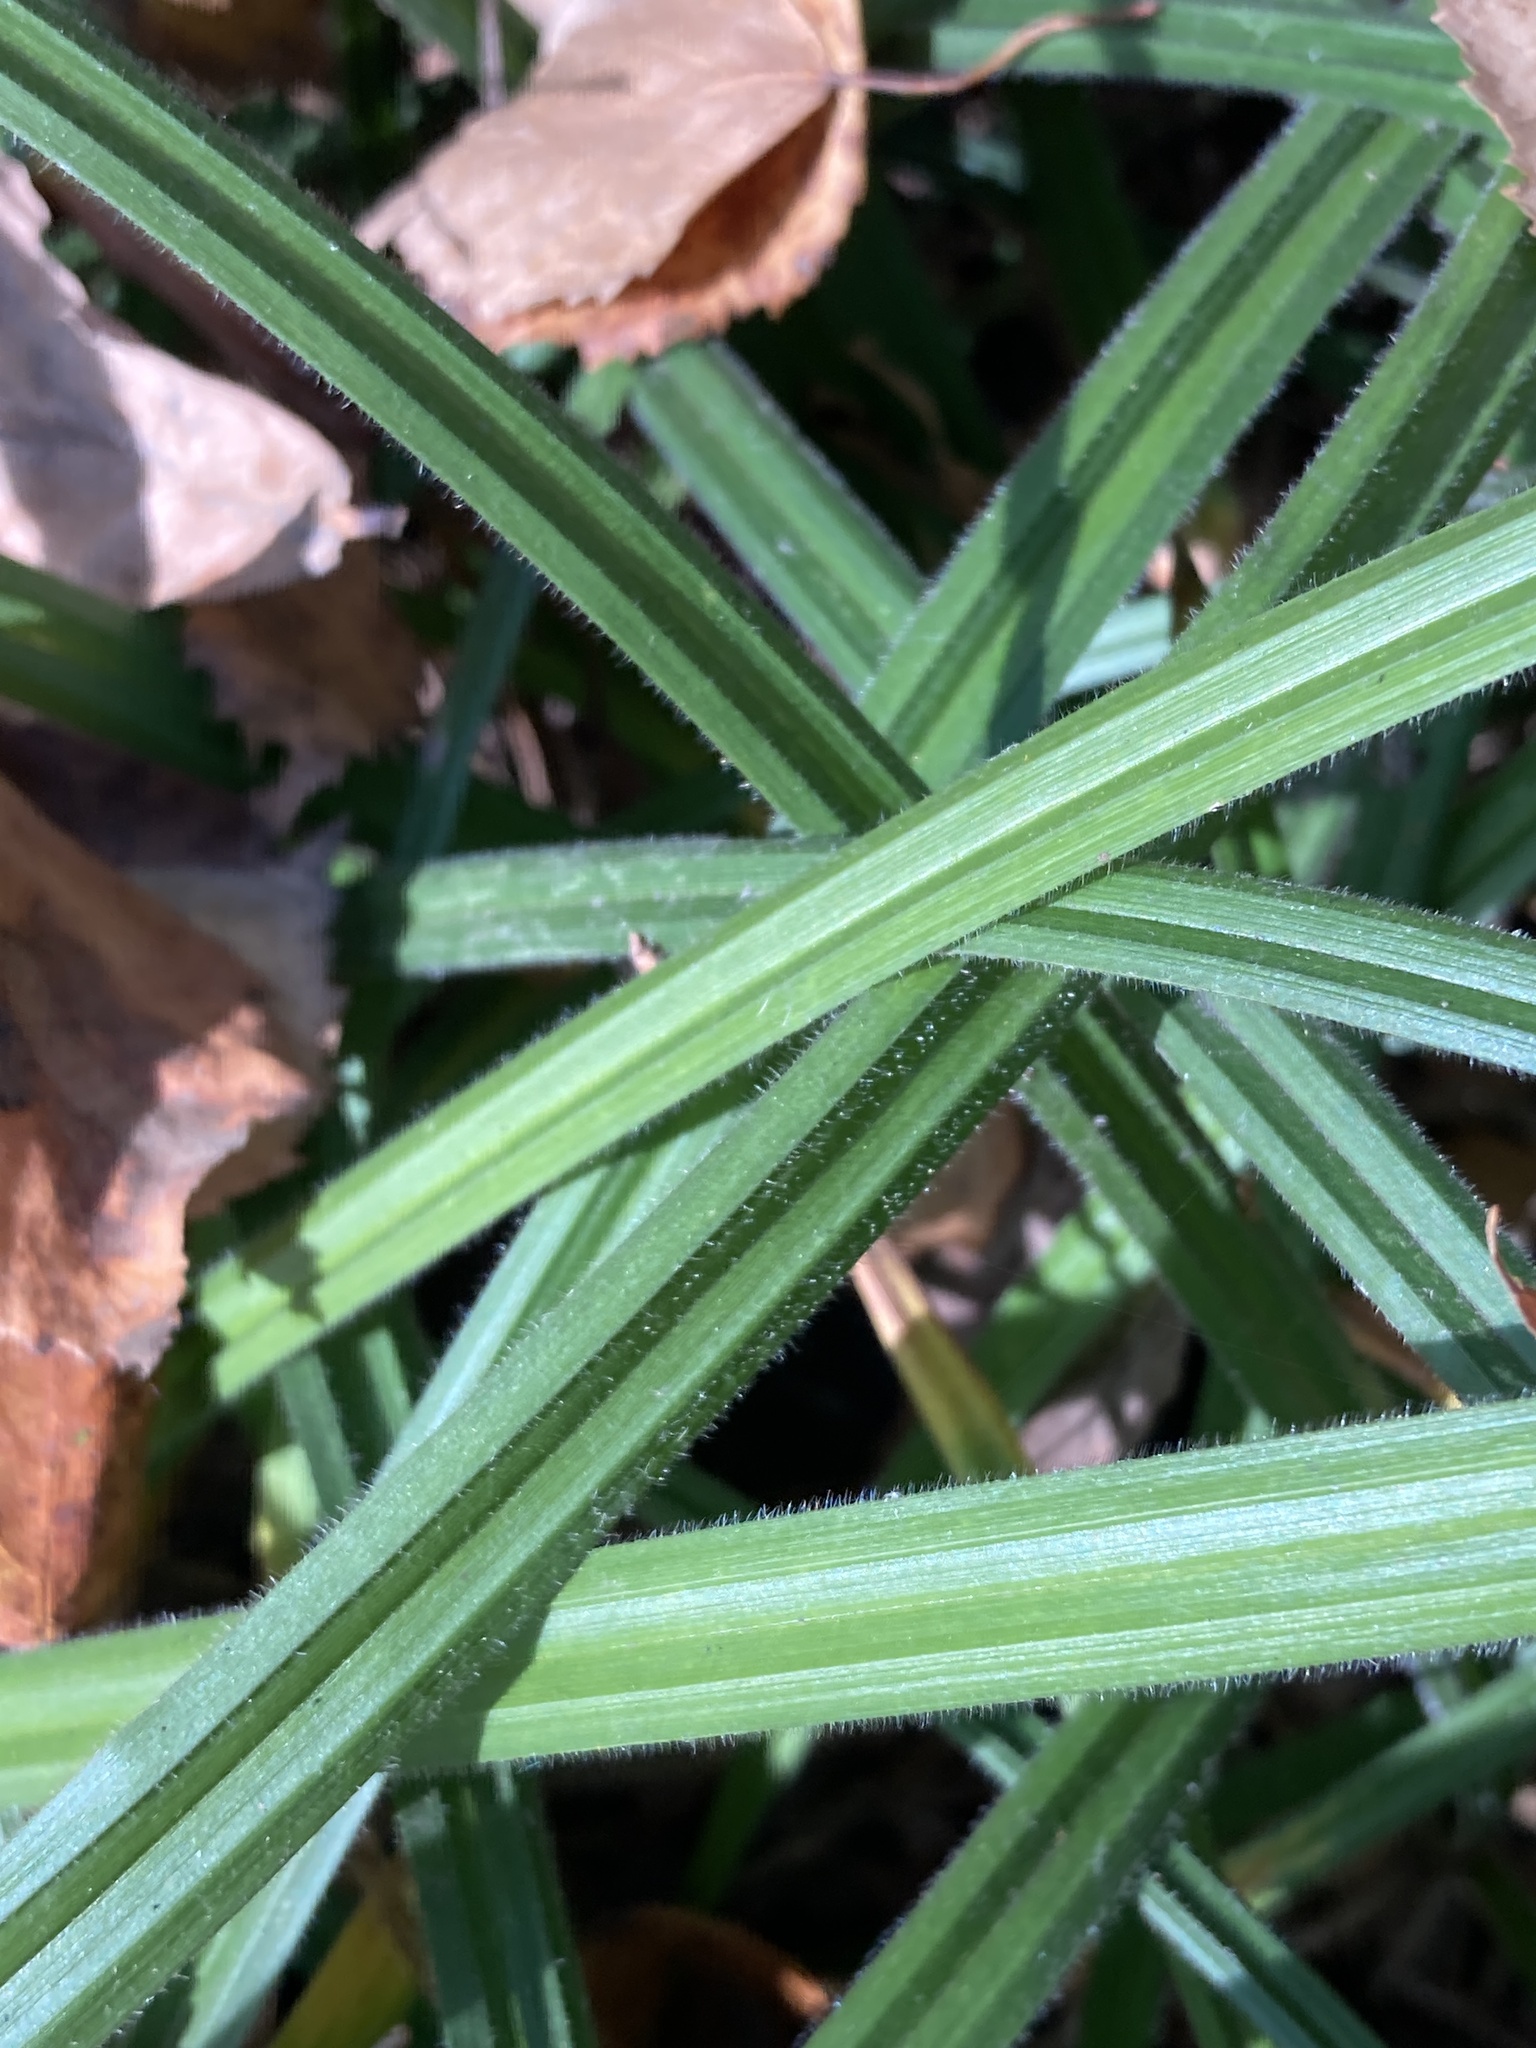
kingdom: Plantae
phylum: Tracheophyta
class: Liliopsida
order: Poales
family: Cyperaceae
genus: Carex
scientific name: Carex pilosa
